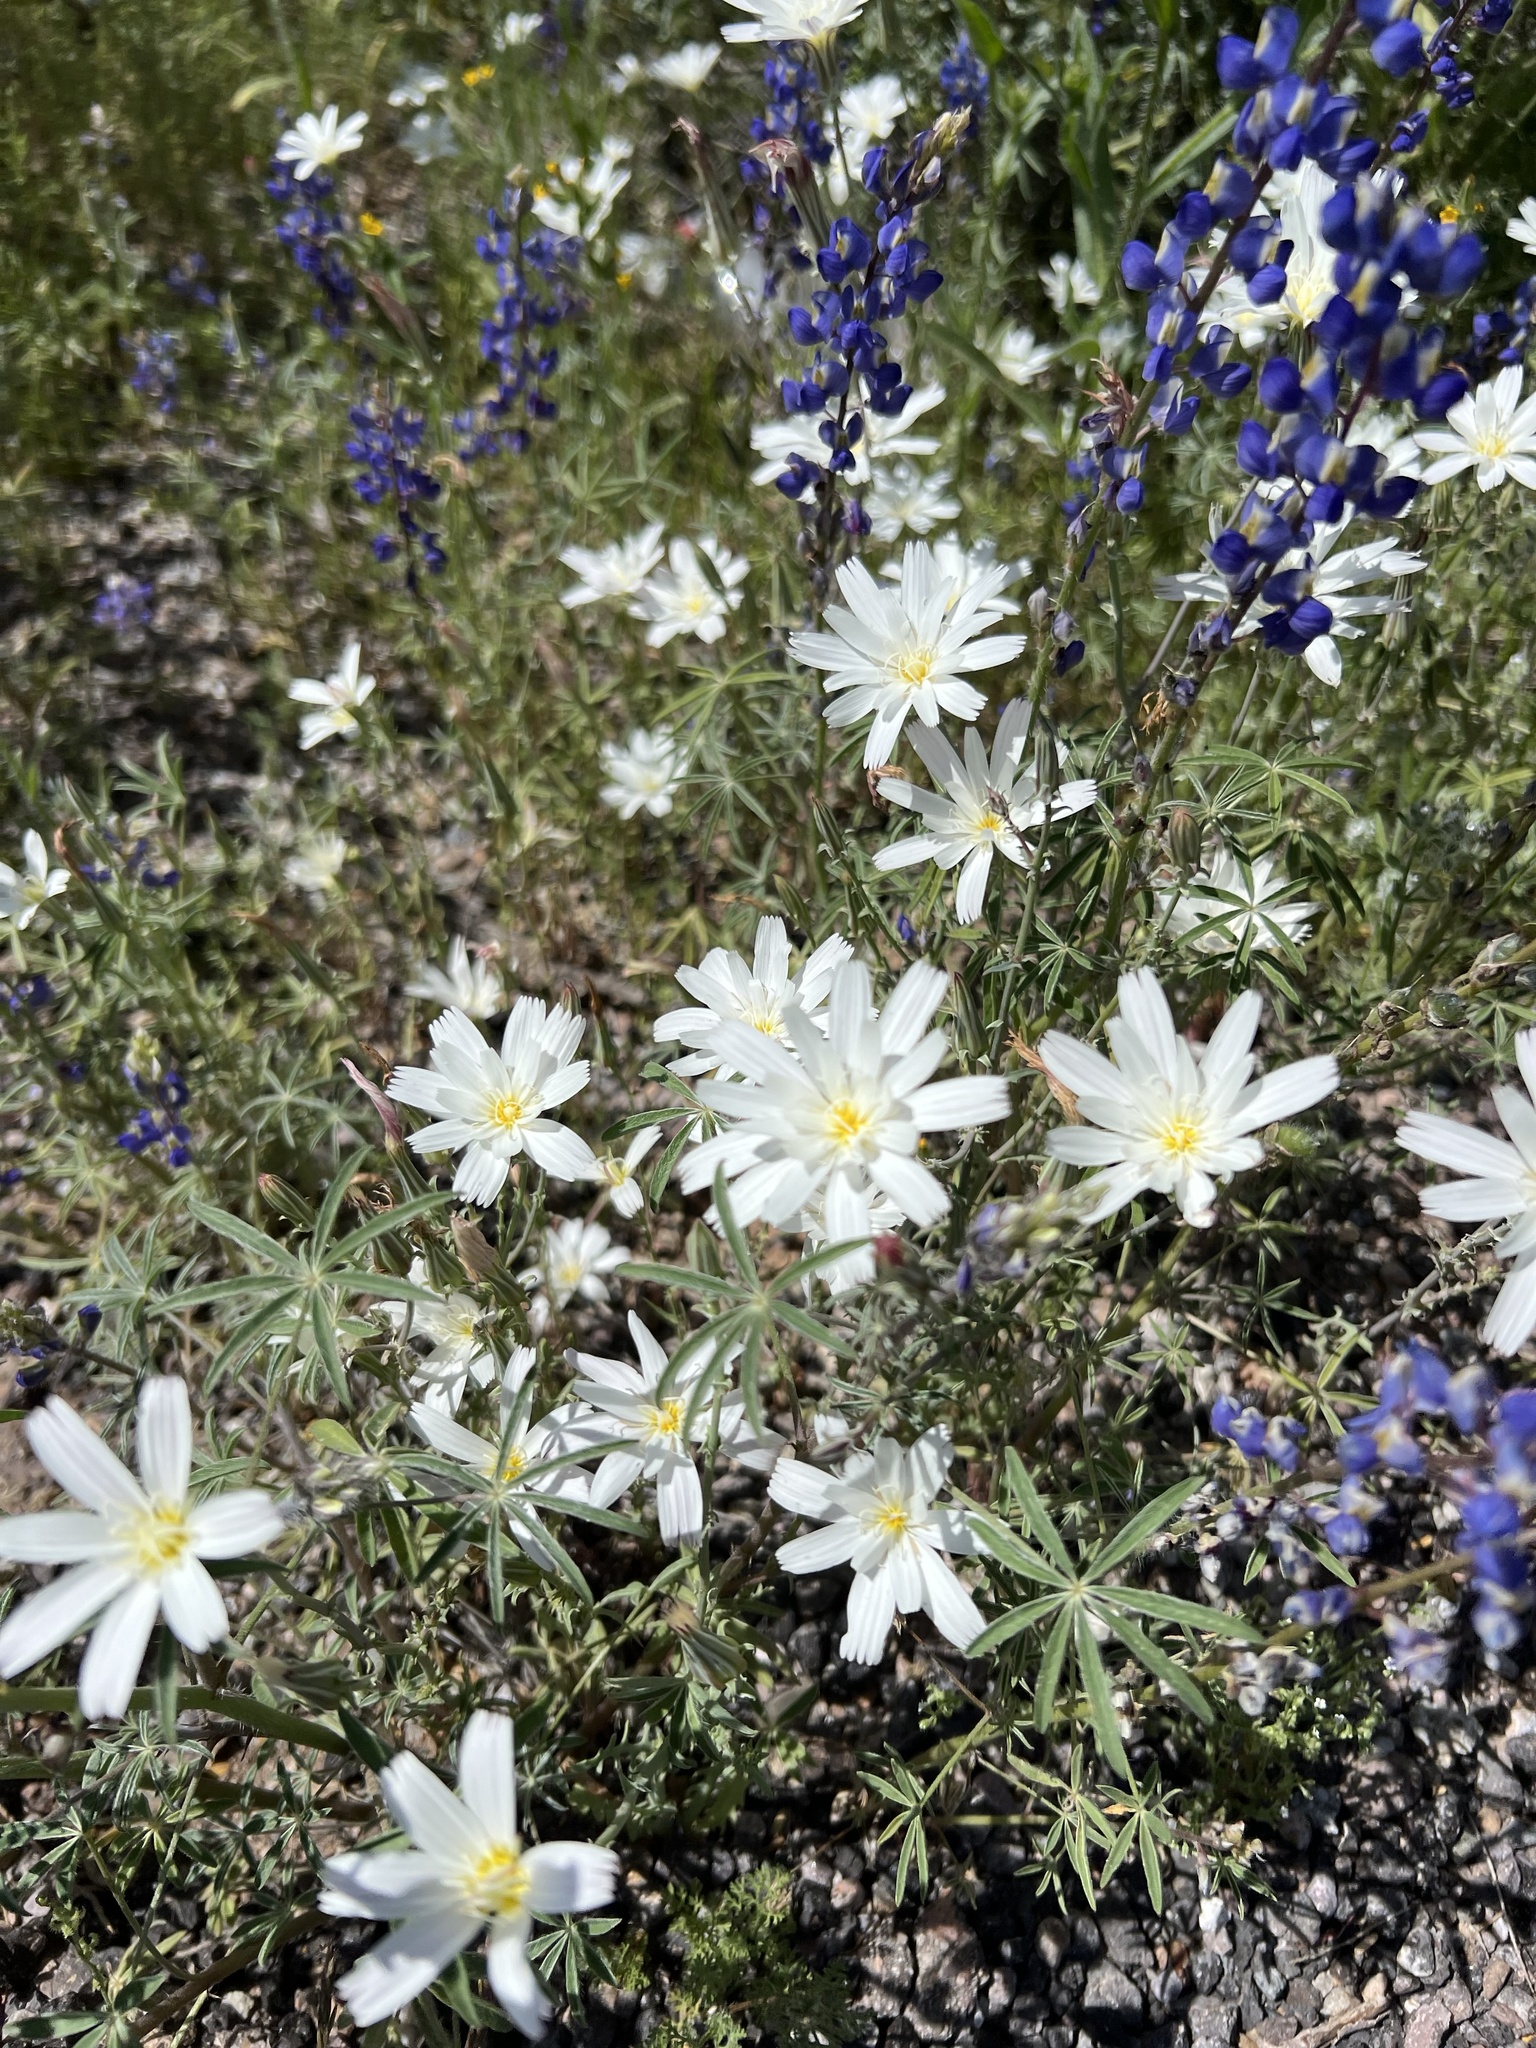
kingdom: Plantae
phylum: Tracheophyta
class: Magnoliopsida
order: Asterales
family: Asteraceae
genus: Rafinesquia
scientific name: Rafinesquia neomexicana
